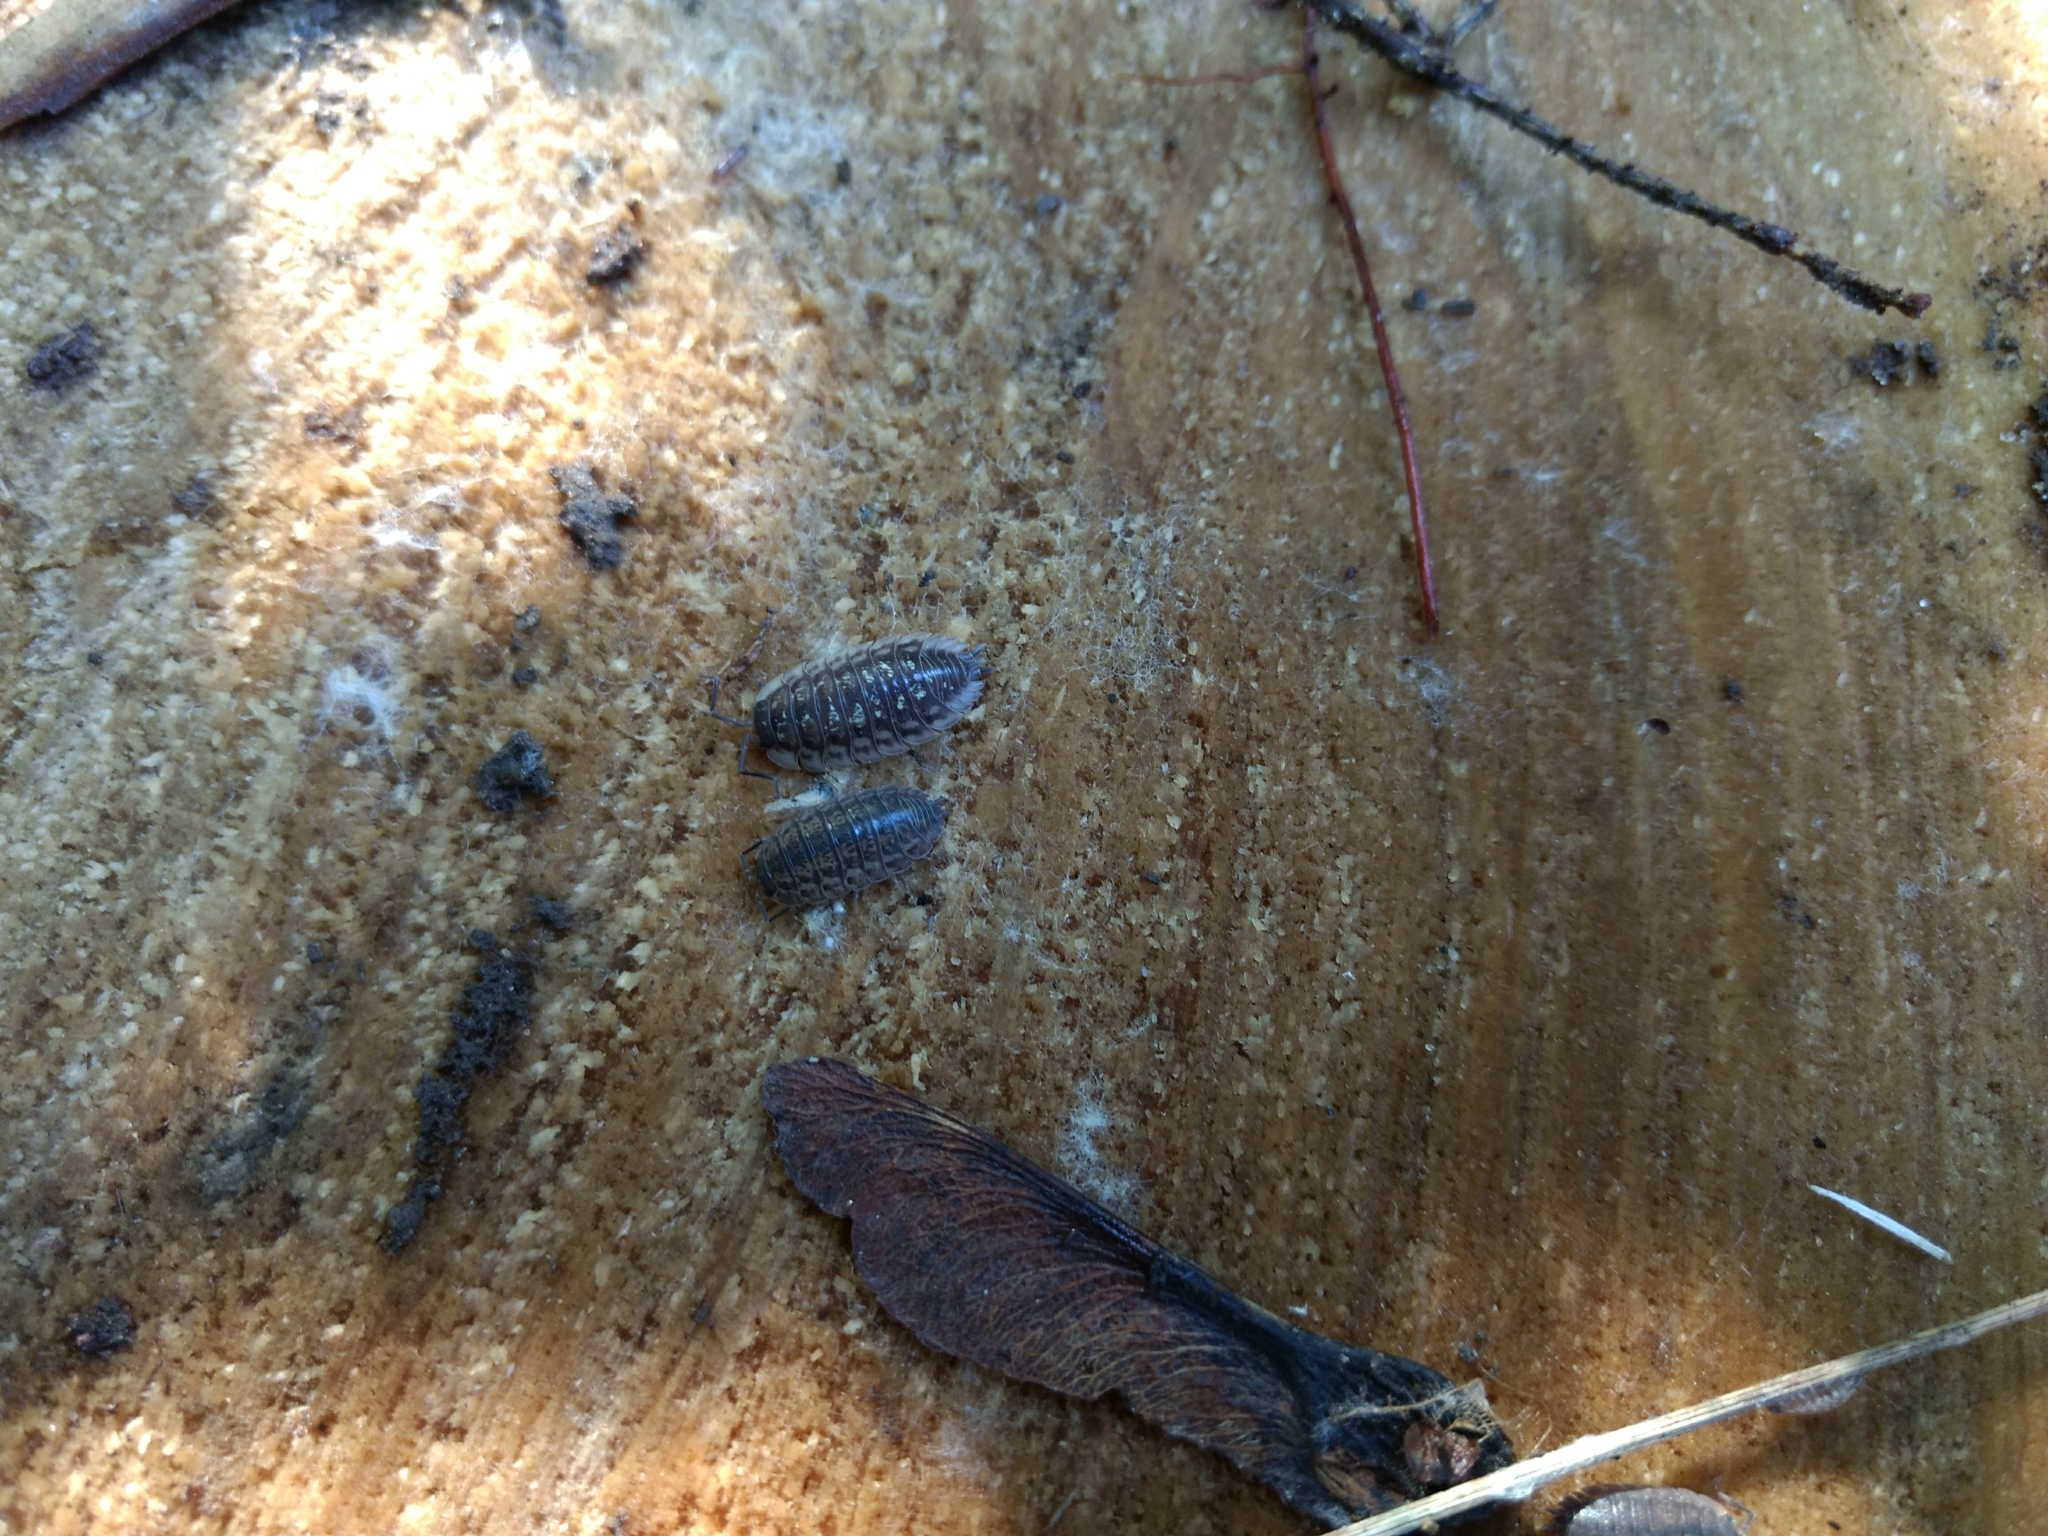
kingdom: Animalia
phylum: Arthropoda
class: Malacostraca
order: Isopoda
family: Oniscidae
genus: Oniscus
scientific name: Oniscus asellus
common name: Common shiny woodlouse
